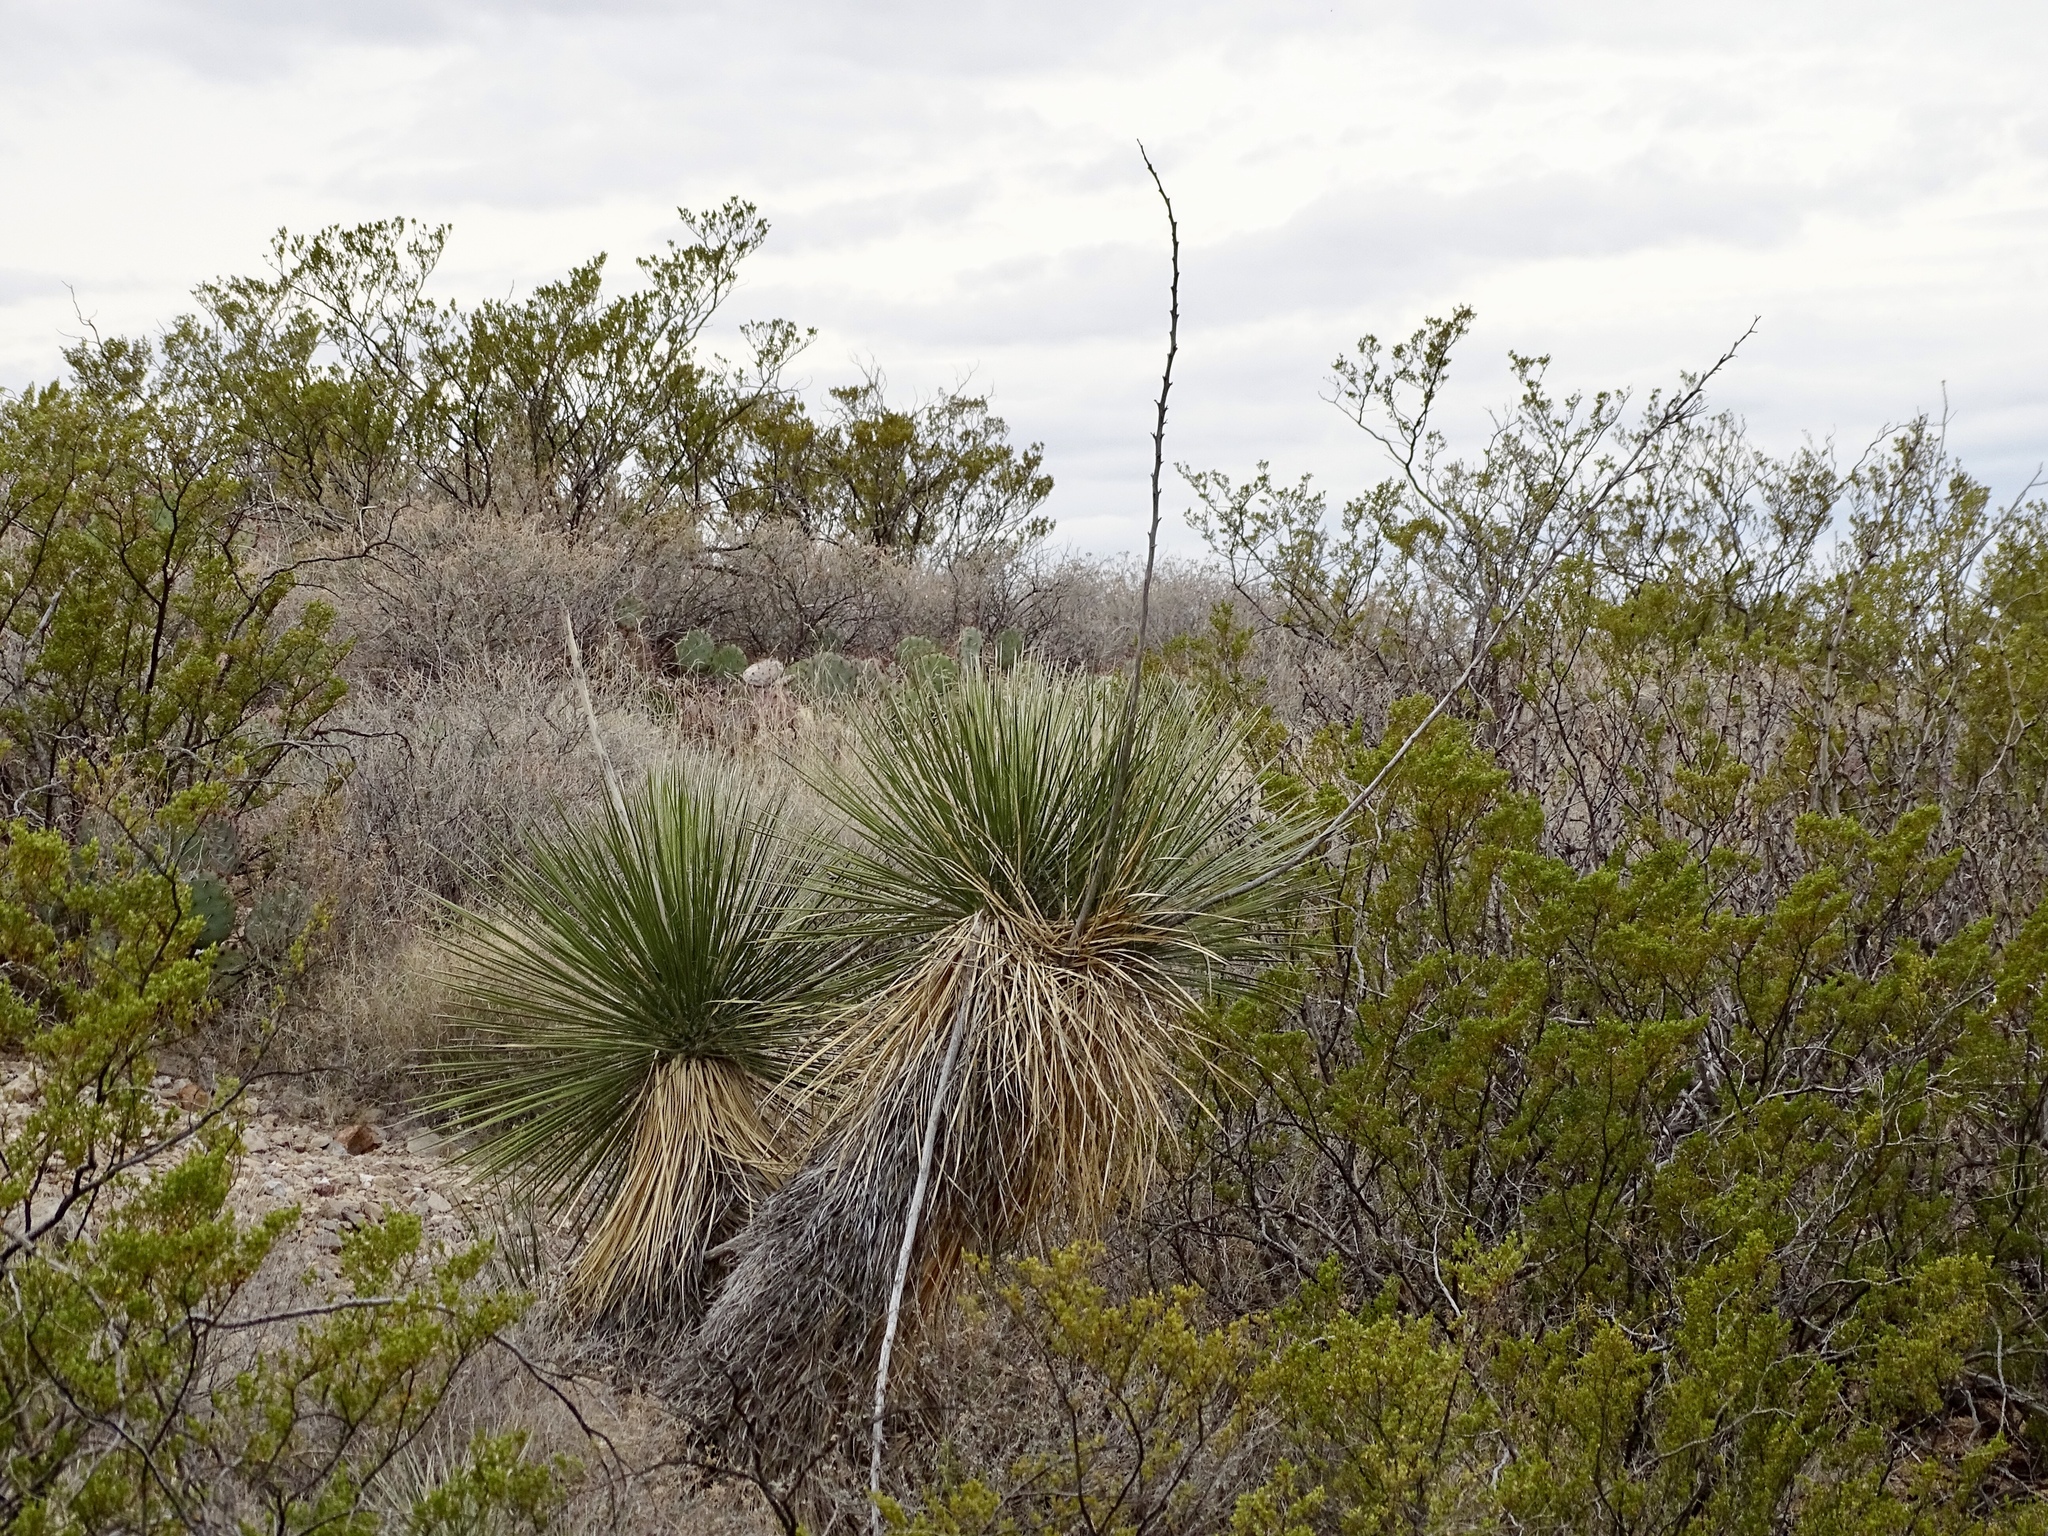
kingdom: Plantae
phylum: Tracheophyta
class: Liliopsida
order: Asparagales
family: Asparagaceae
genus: Yucca
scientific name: Yucca elata
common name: Palmella
